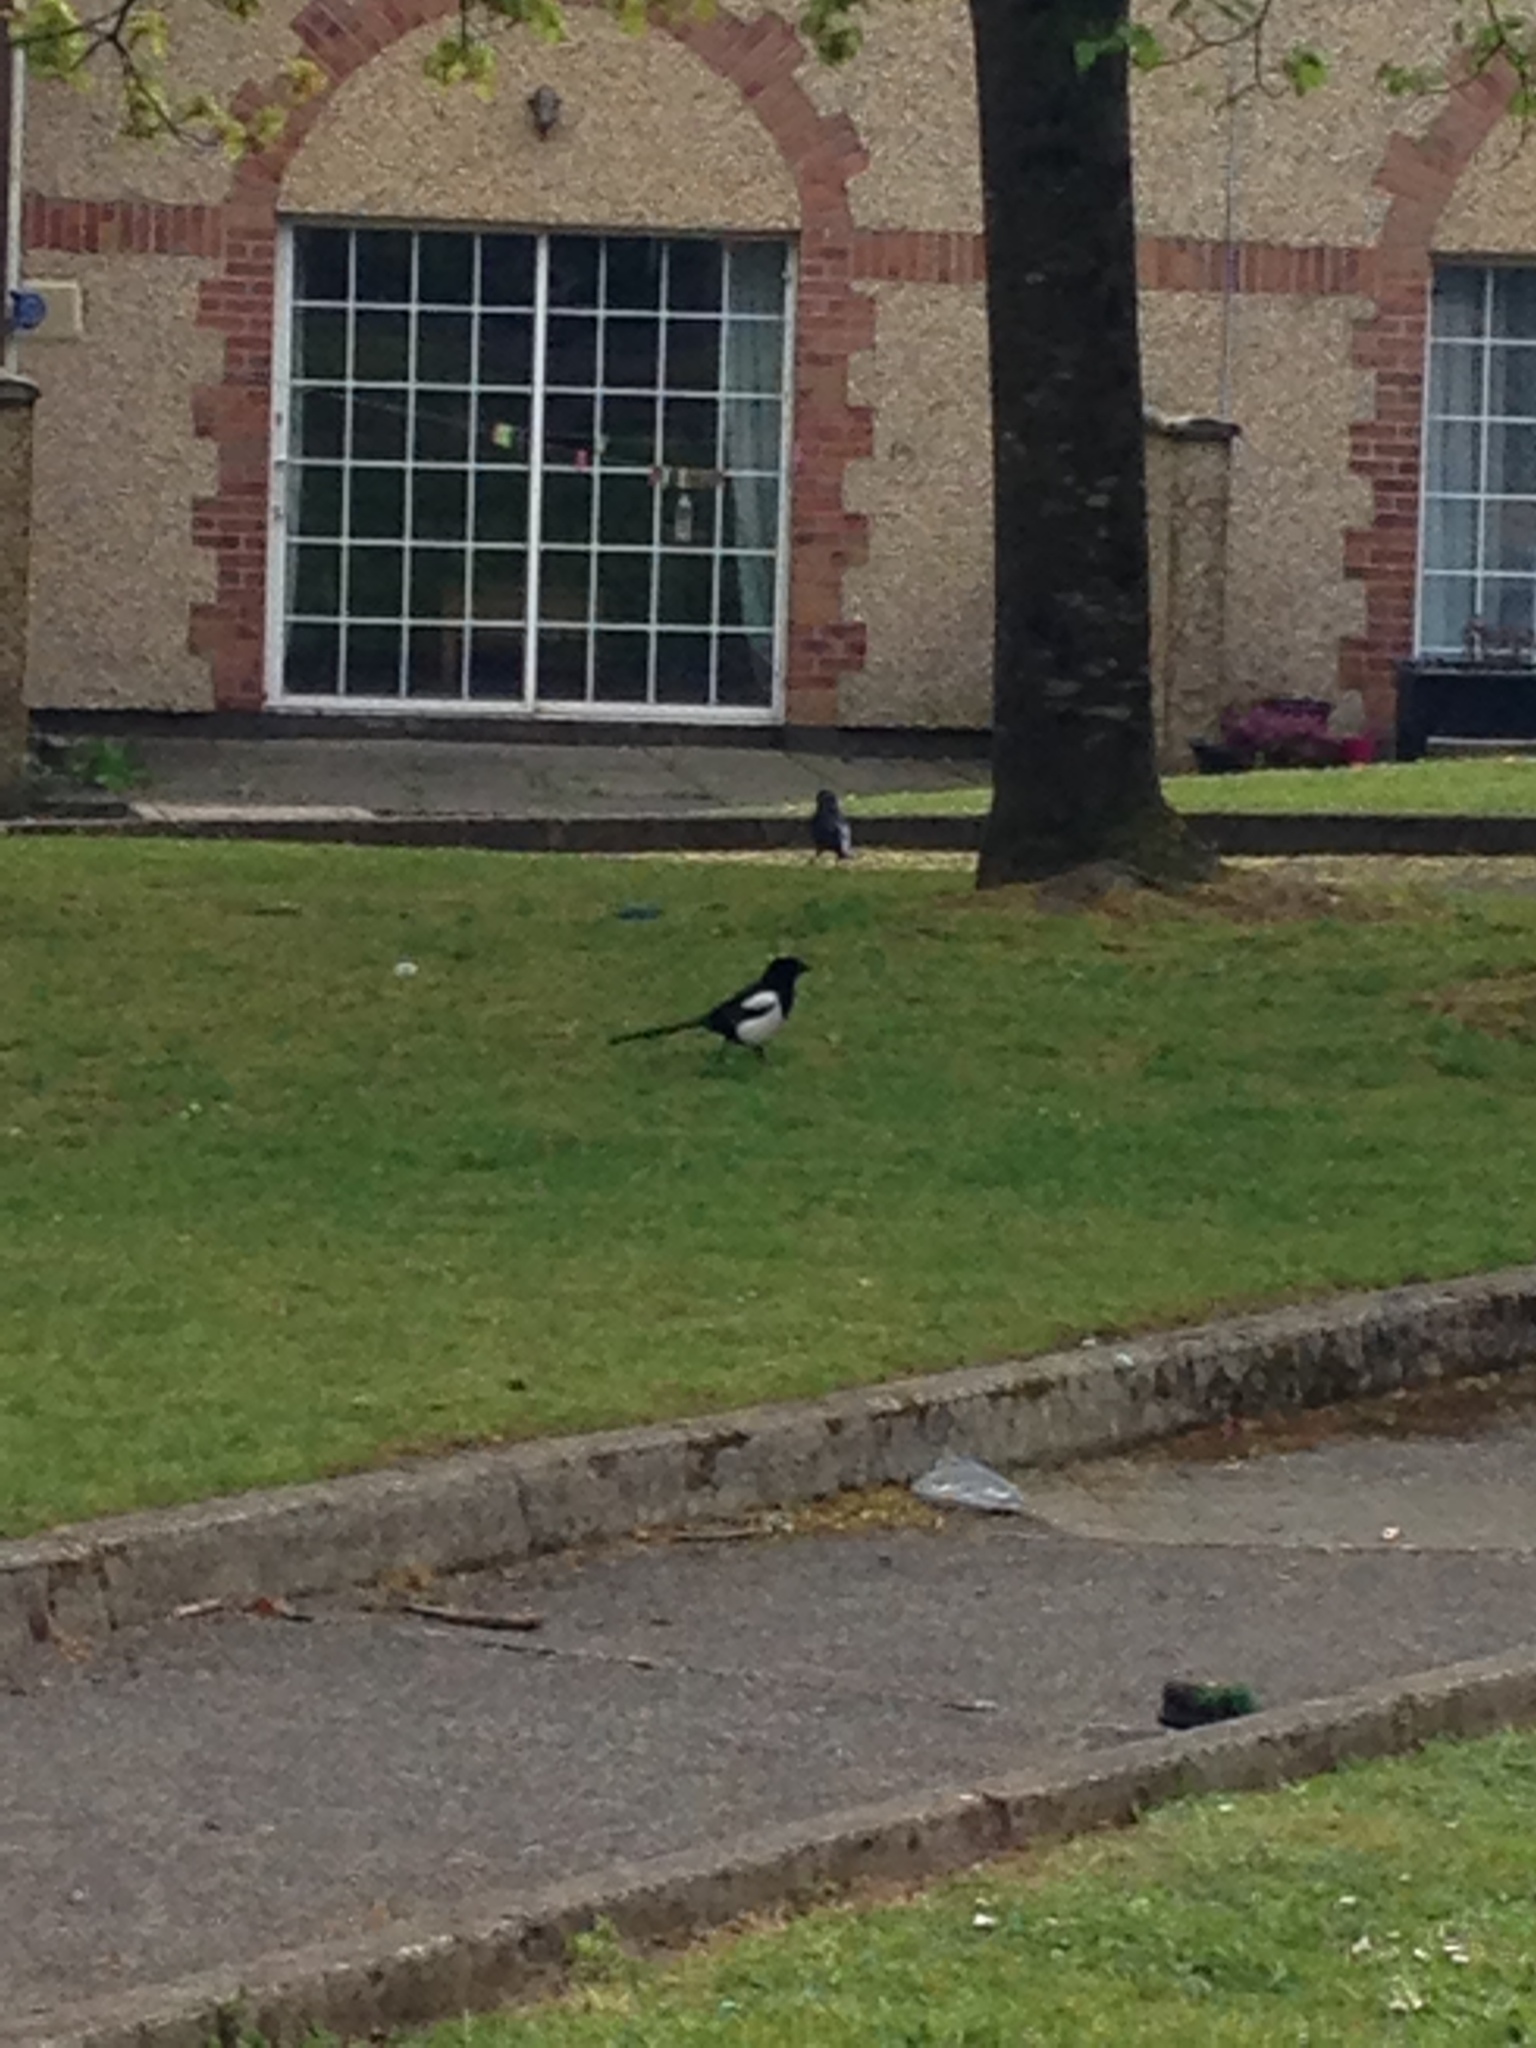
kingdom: Animalia
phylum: Chordata
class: Aves
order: Passeriformes
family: Corvidae
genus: Pica
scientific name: Pica pica
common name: Eurasian magpie
